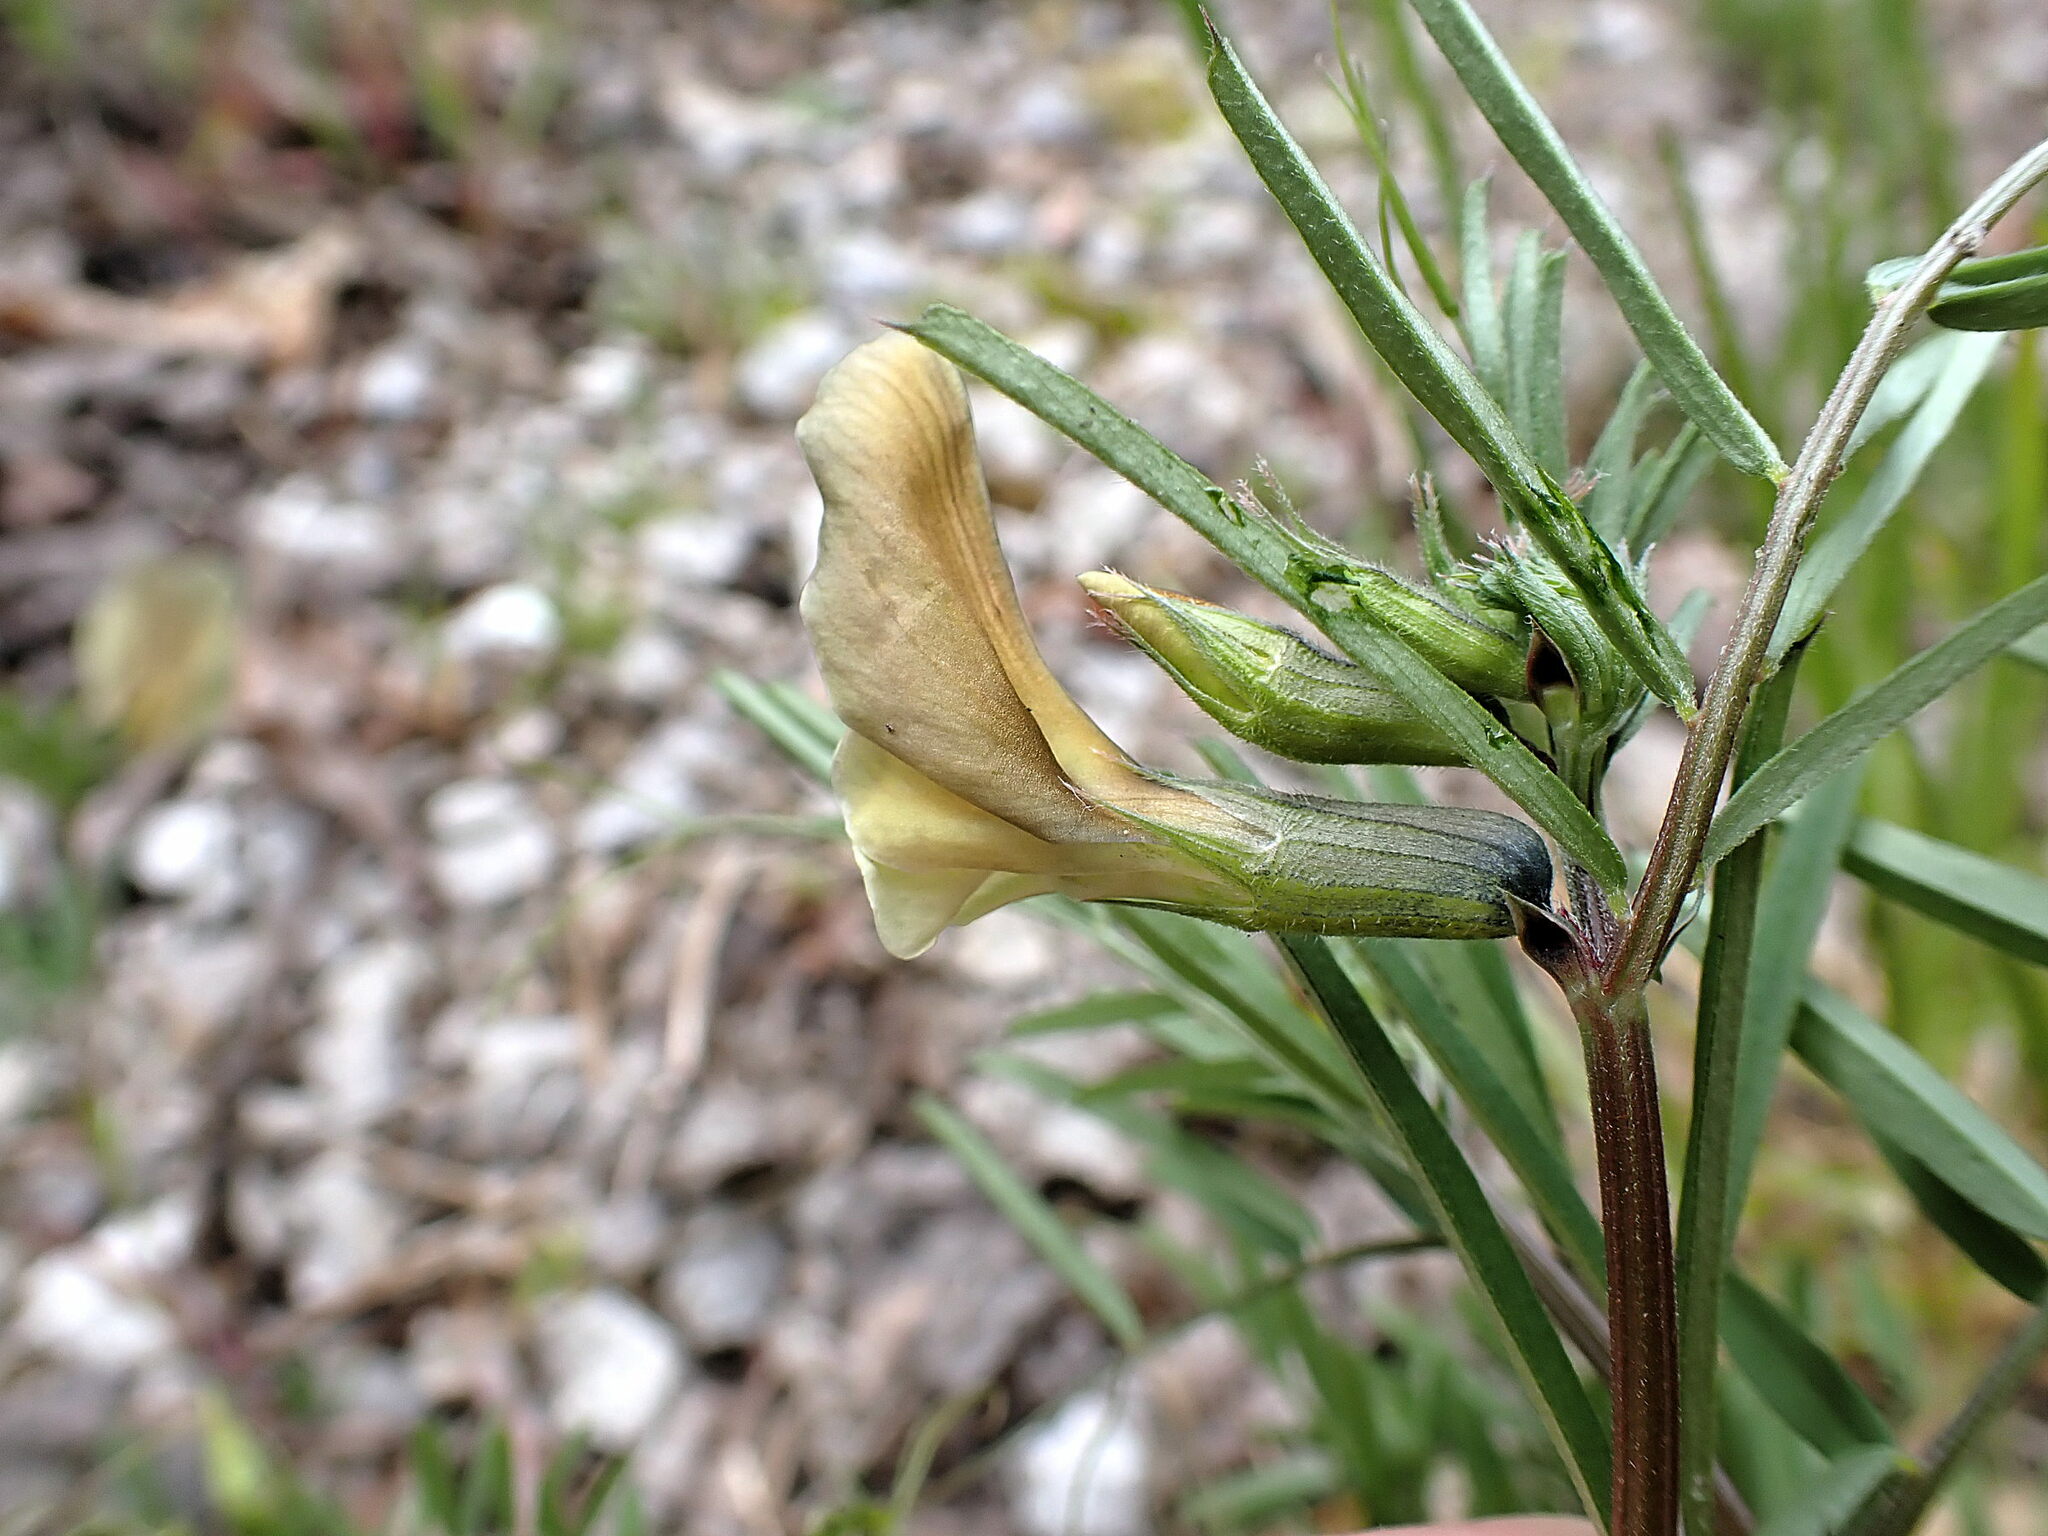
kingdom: Plantae
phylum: Tracheophyta
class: Magnoliopsida
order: Fabales
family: Fabaceae
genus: Vicia
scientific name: Vicia grandiflora
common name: Large yellow vetch
